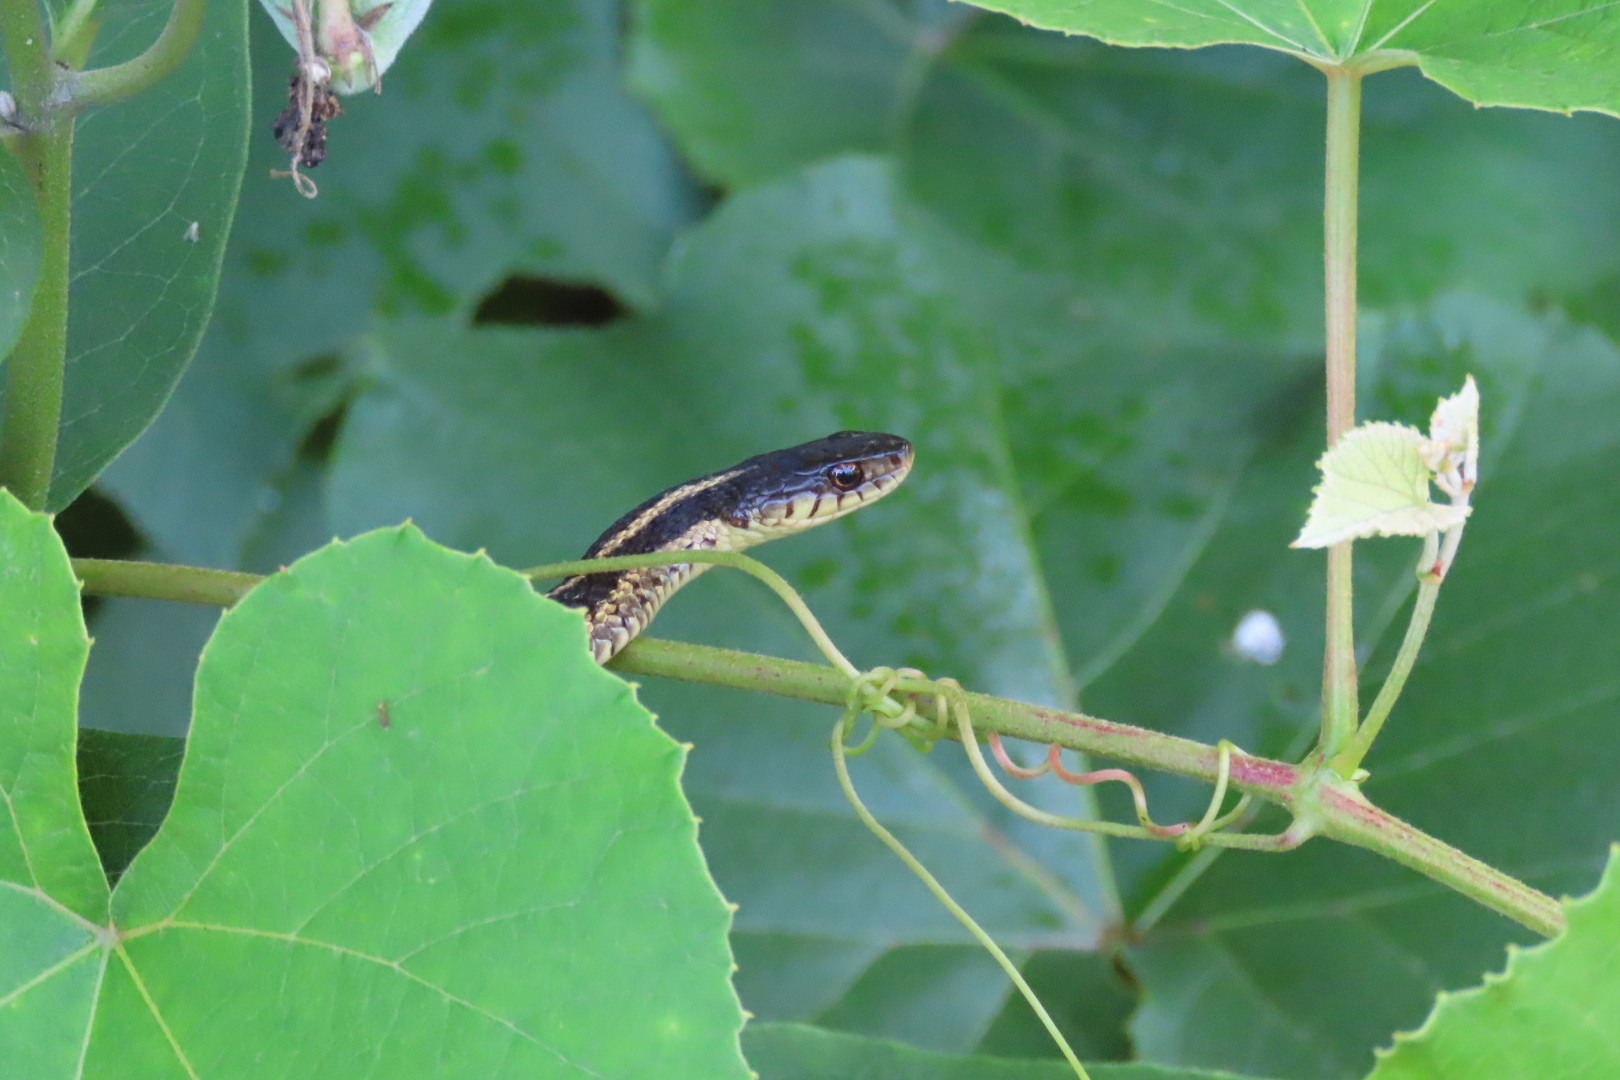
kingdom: Animalia
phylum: Chordata
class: Squamata
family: Colubridae
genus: Thamnophis
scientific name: Thamnophis sirtalis
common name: Common garter snake
